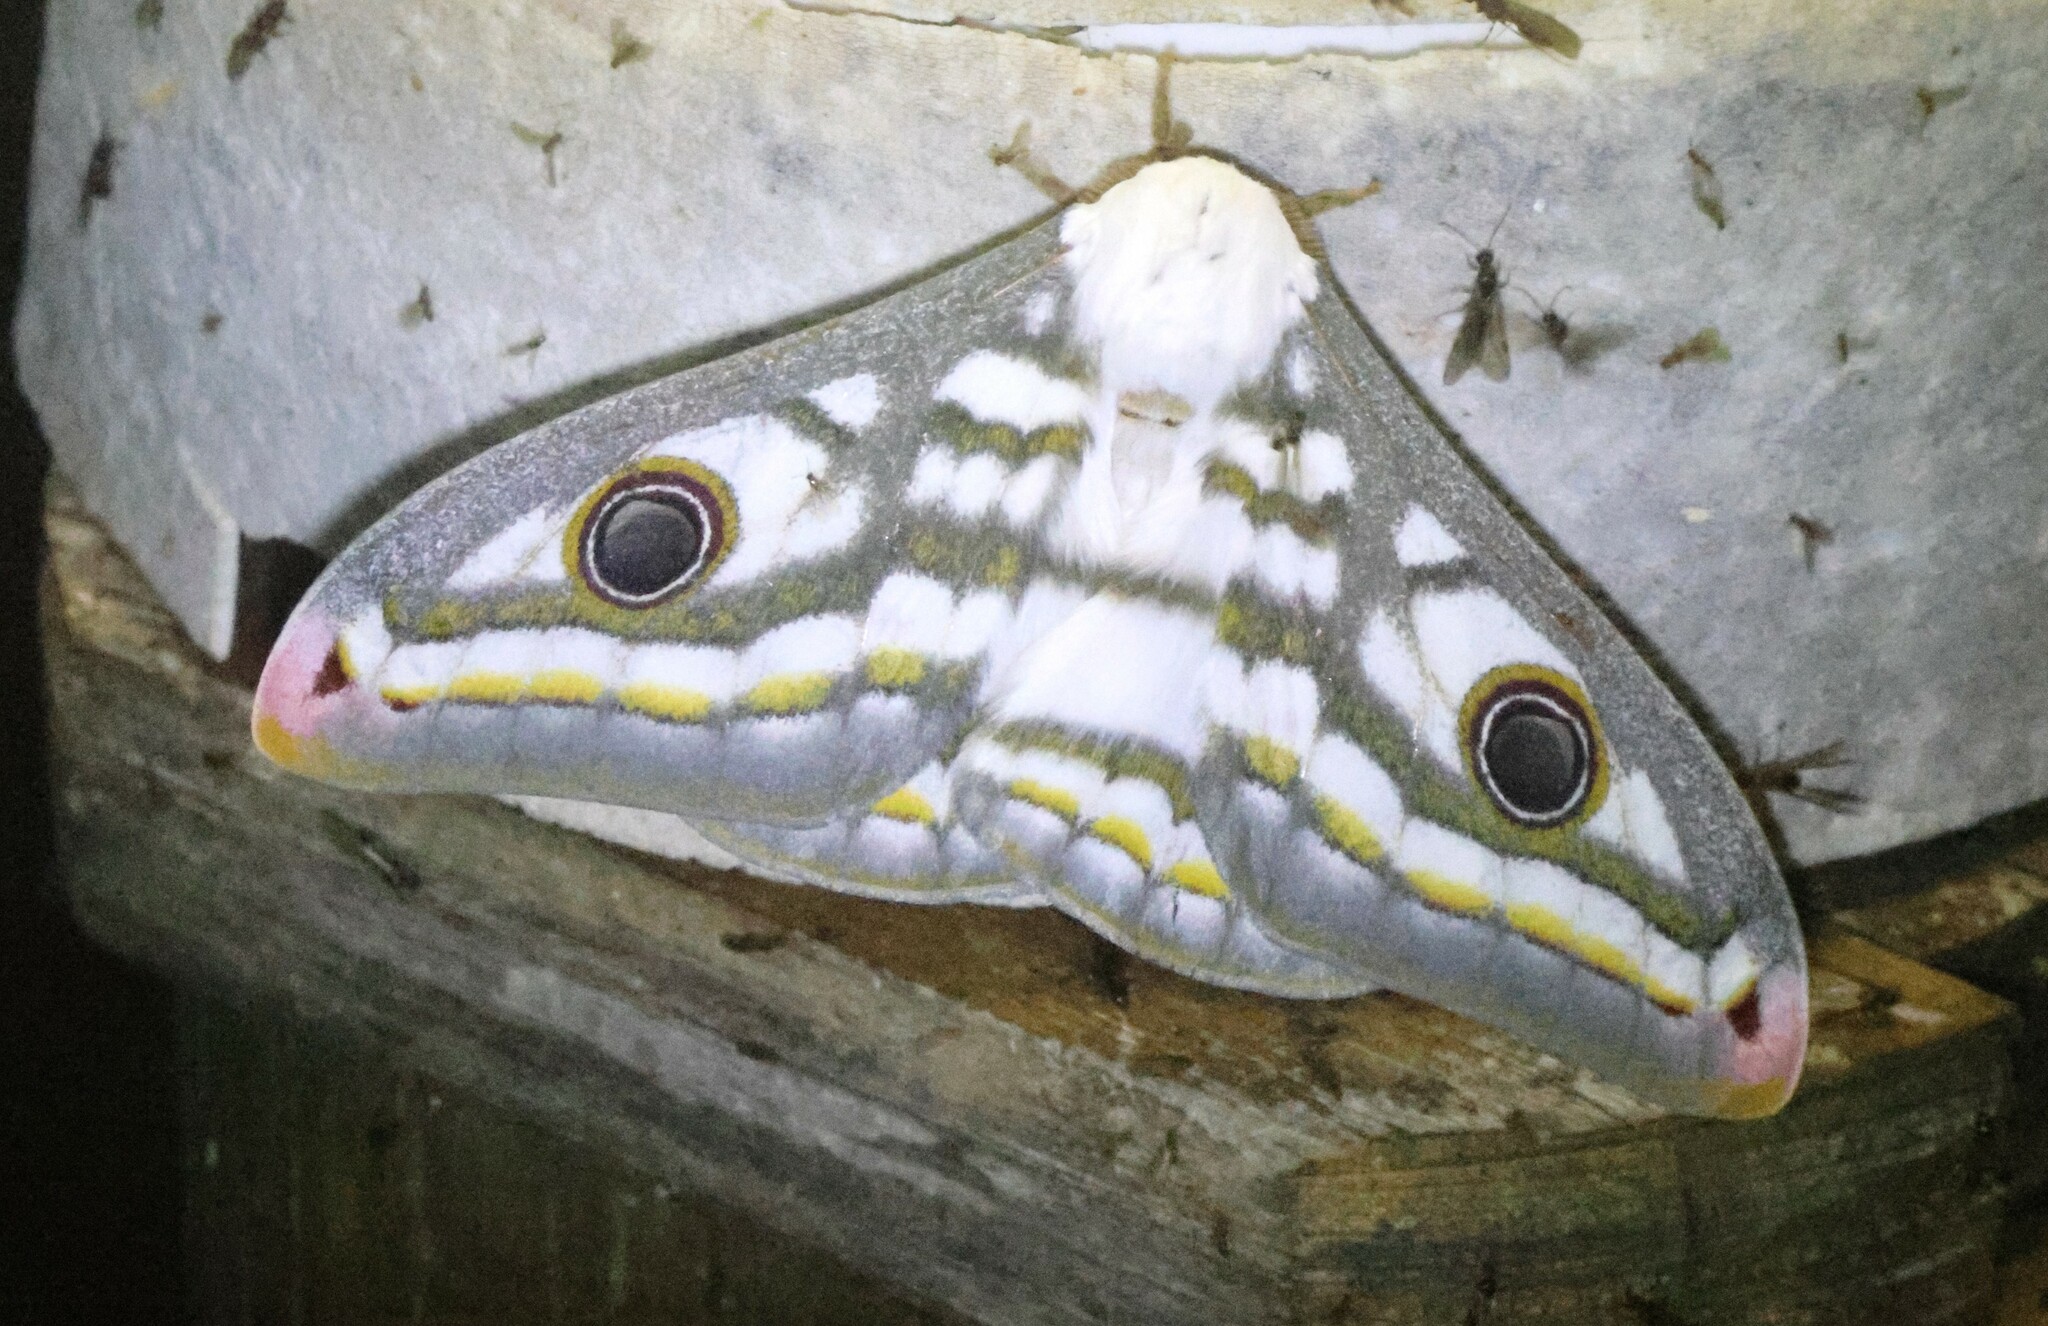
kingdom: Animalia
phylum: Arthropoda
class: Insecta
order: Lepidoptera
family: Saturniidae
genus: Heniocha
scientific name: Heniocha marnois
